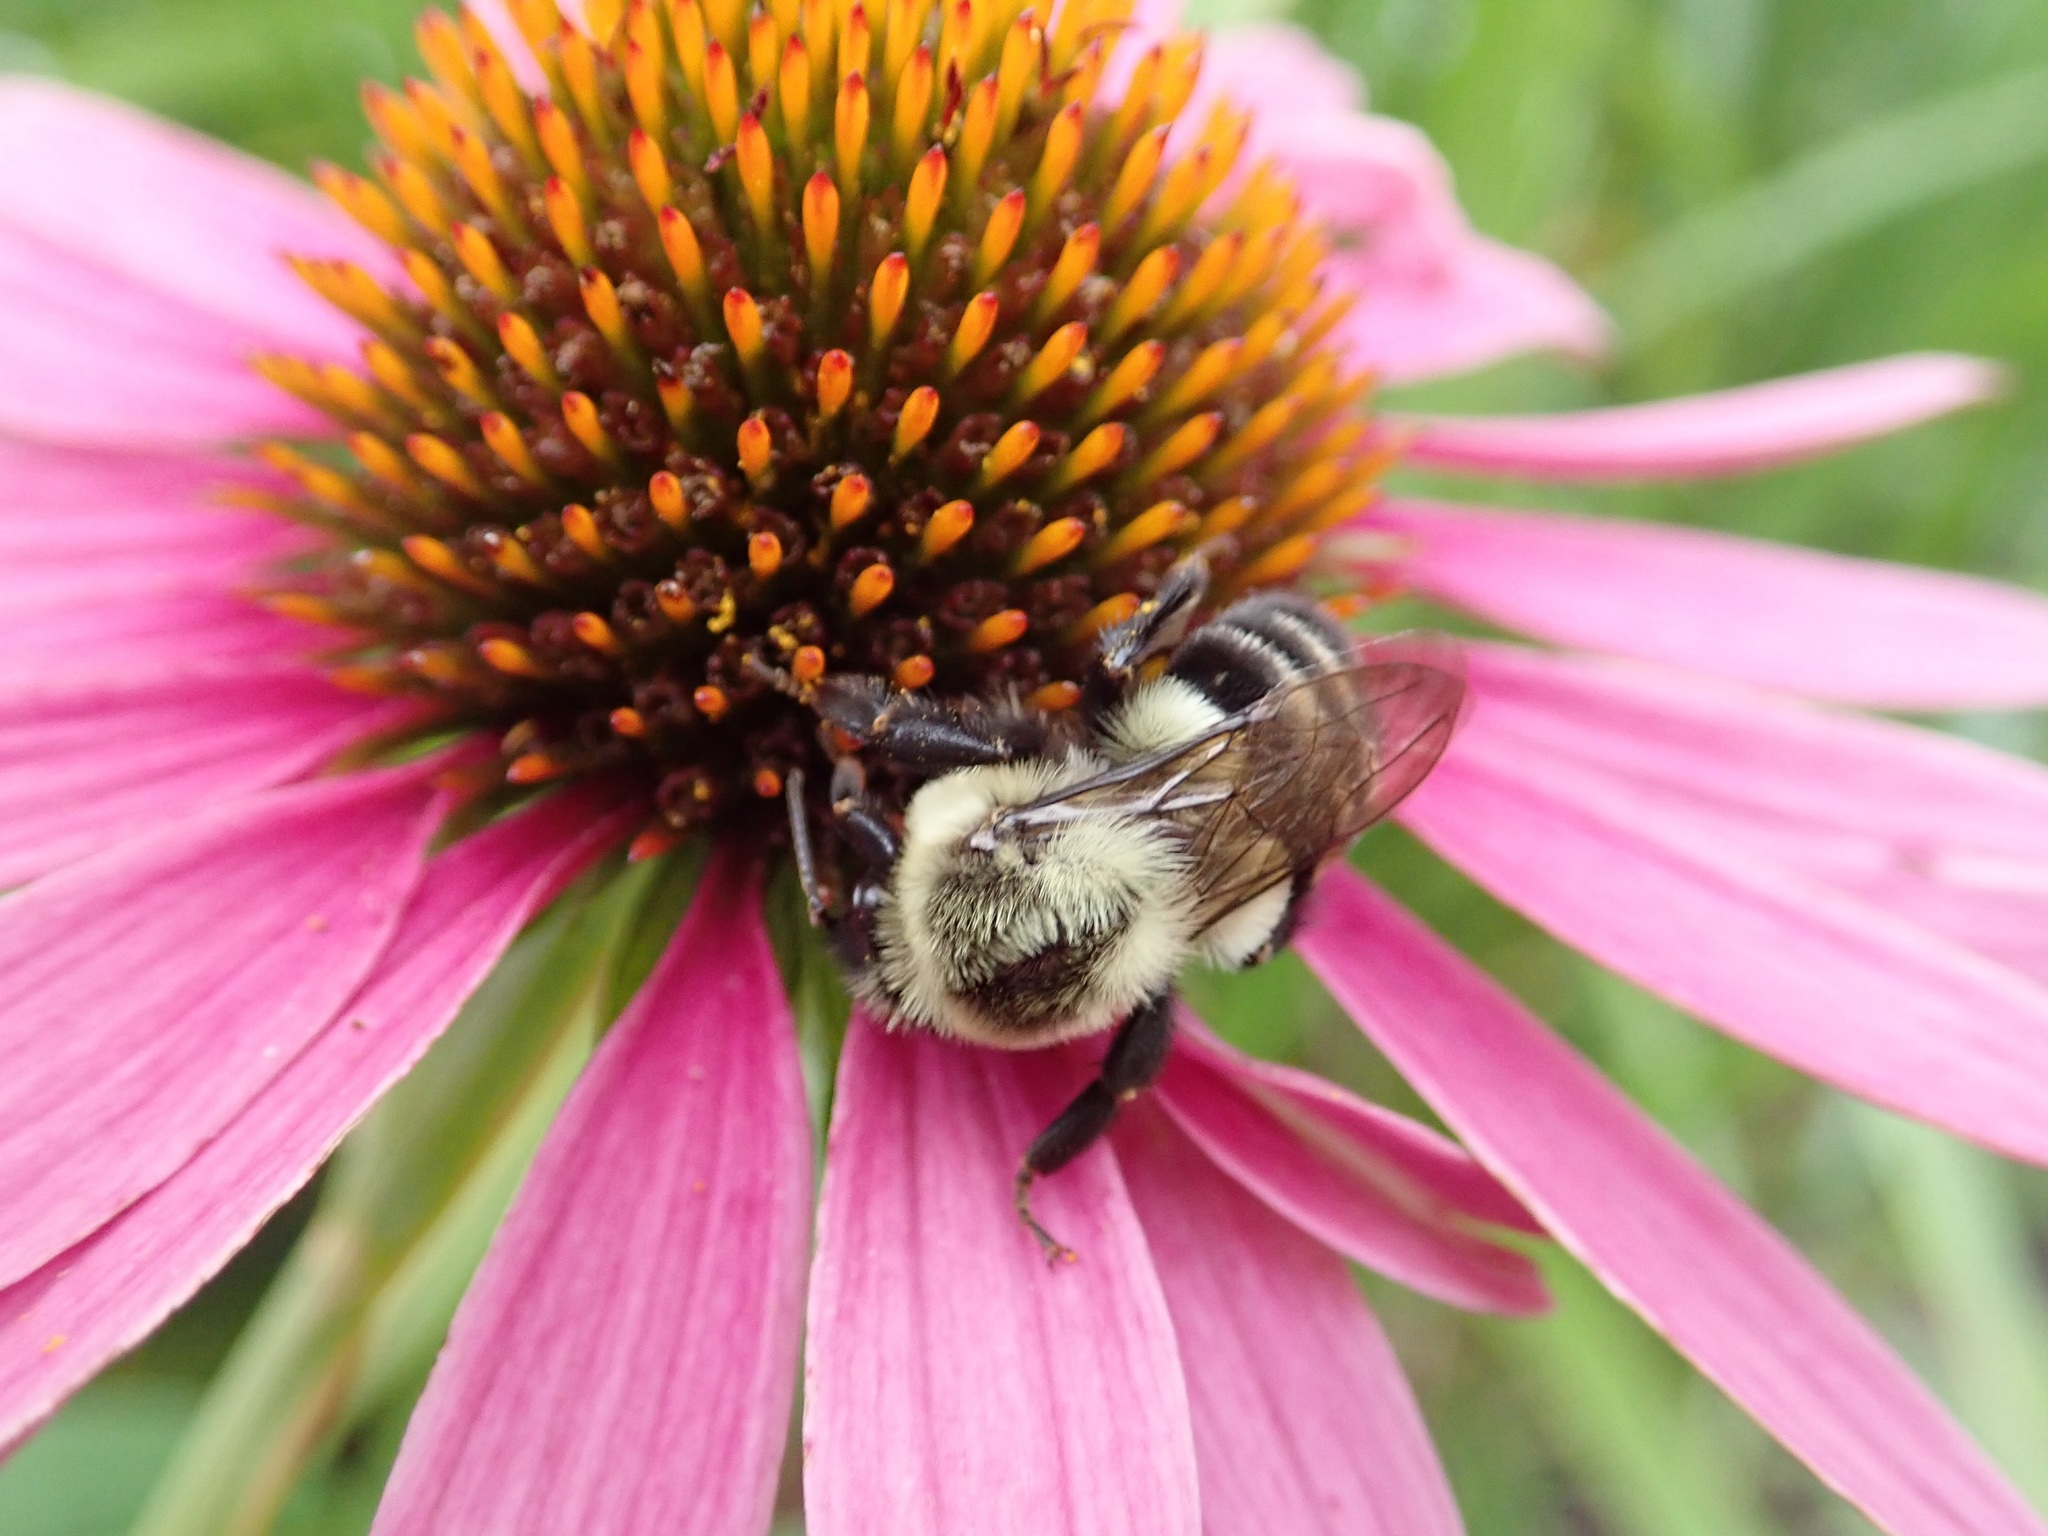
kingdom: Animalia
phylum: Arthropoda
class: Insecta
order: Hymenoptera
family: Apidae
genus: Bombus
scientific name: Bombus impatiens
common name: Common eastern bumble bee
